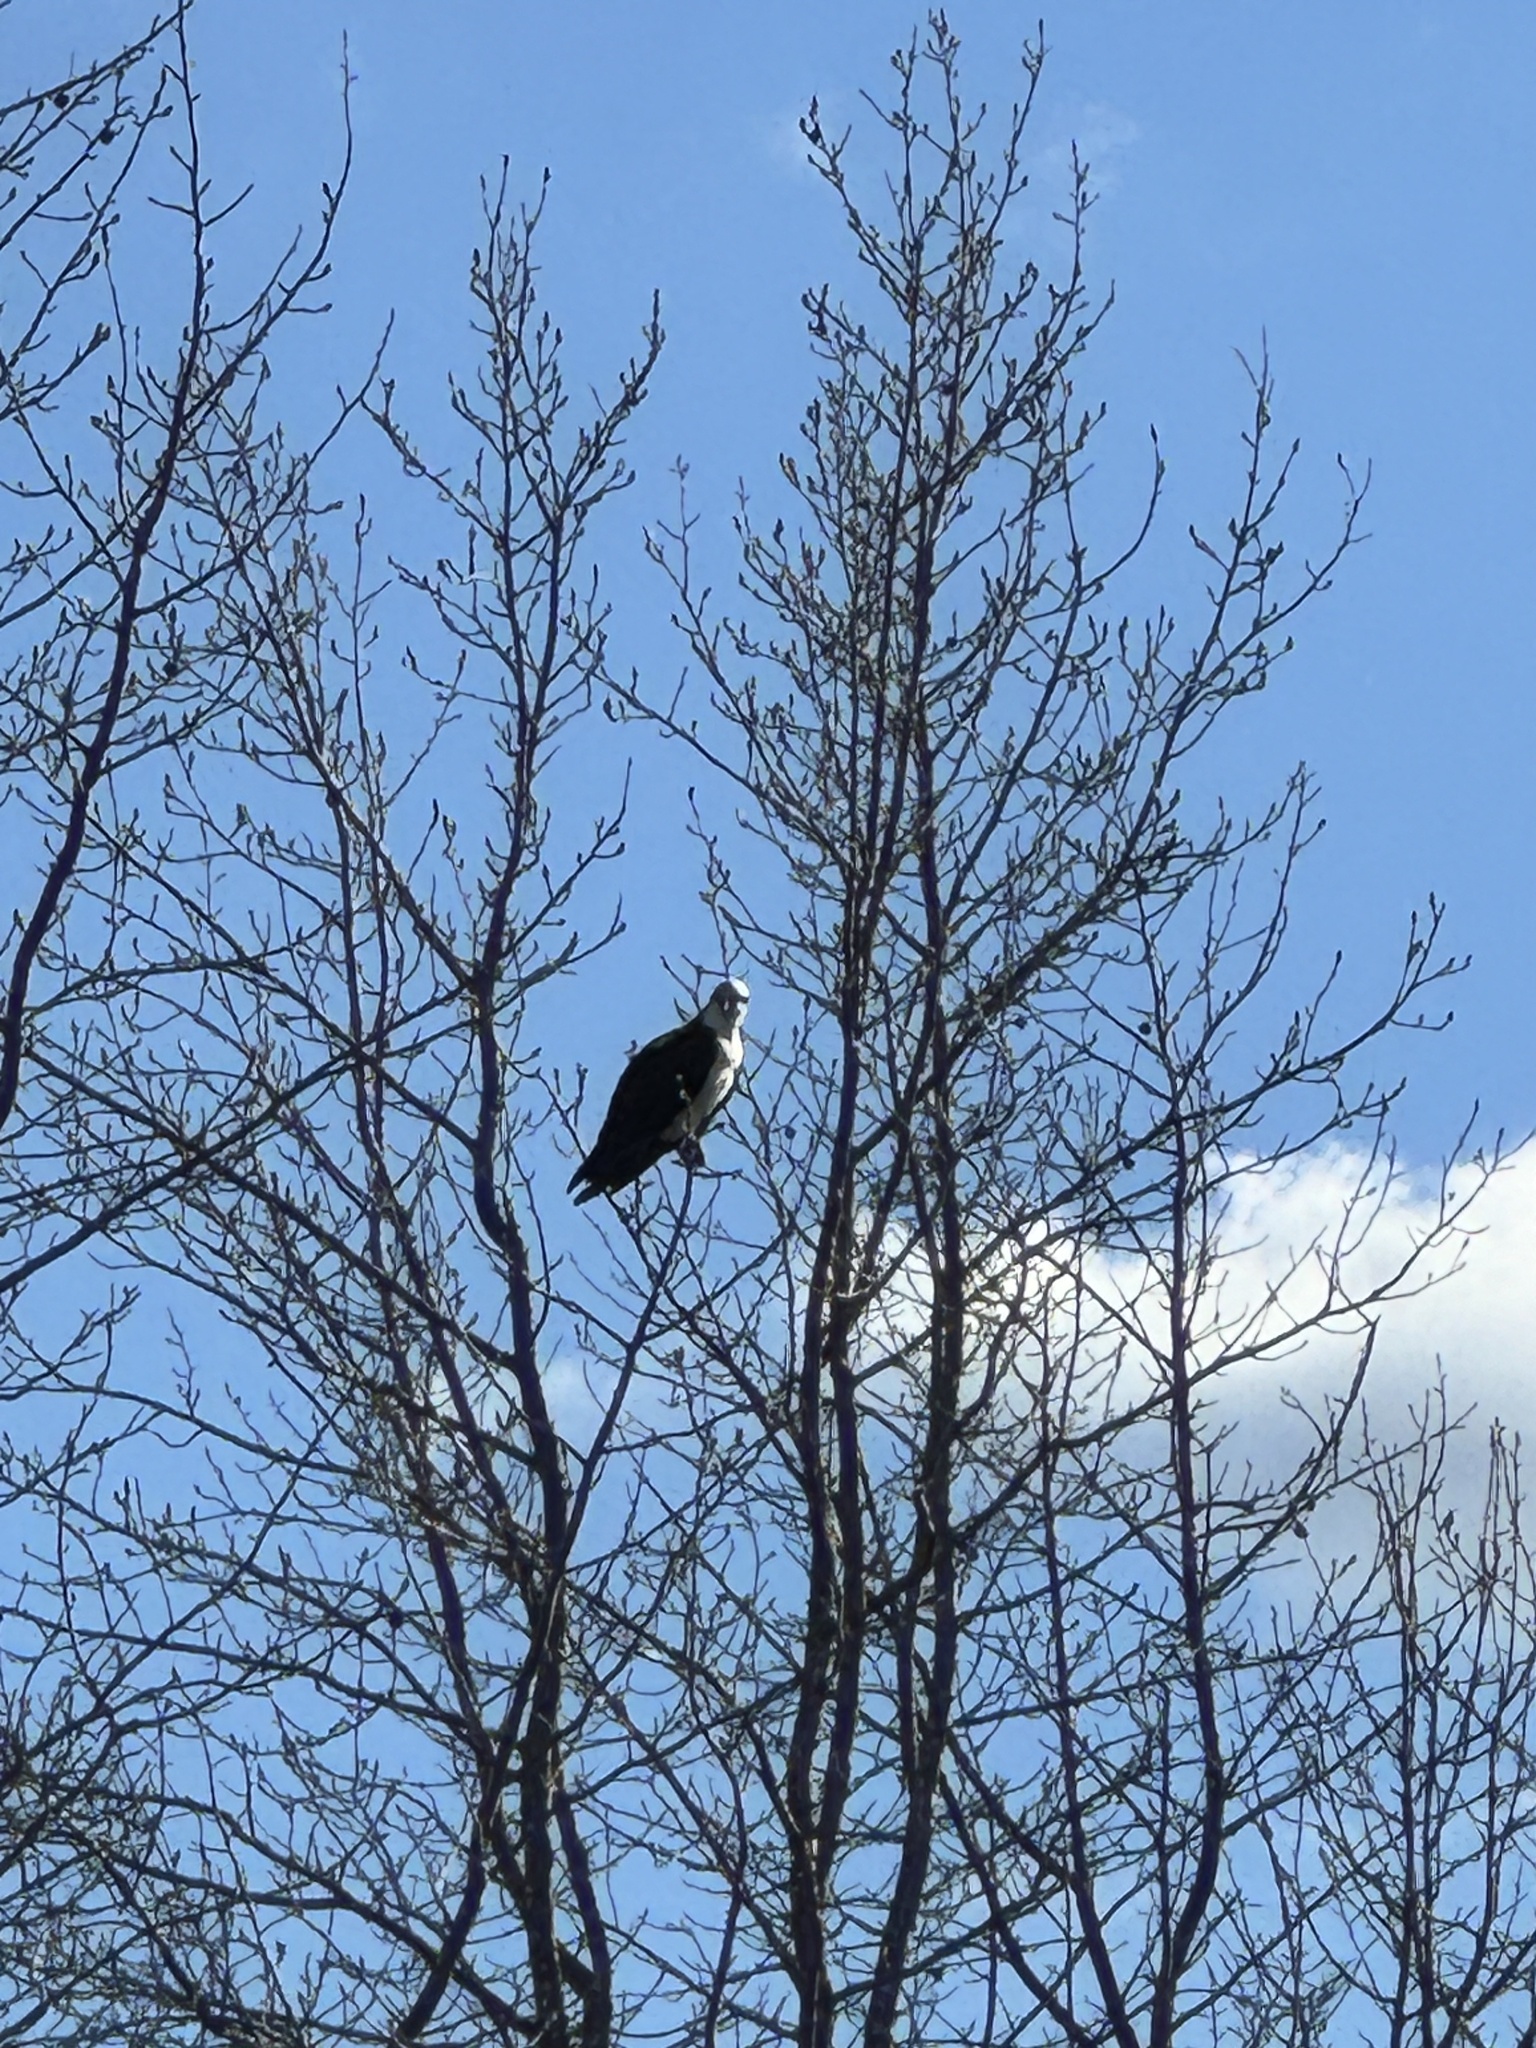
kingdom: Animalia
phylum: Chordata
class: Aves
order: Accipitriformes
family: Pandionidae
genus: Pandion
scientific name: Pandion haliaetus
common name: Osprey
